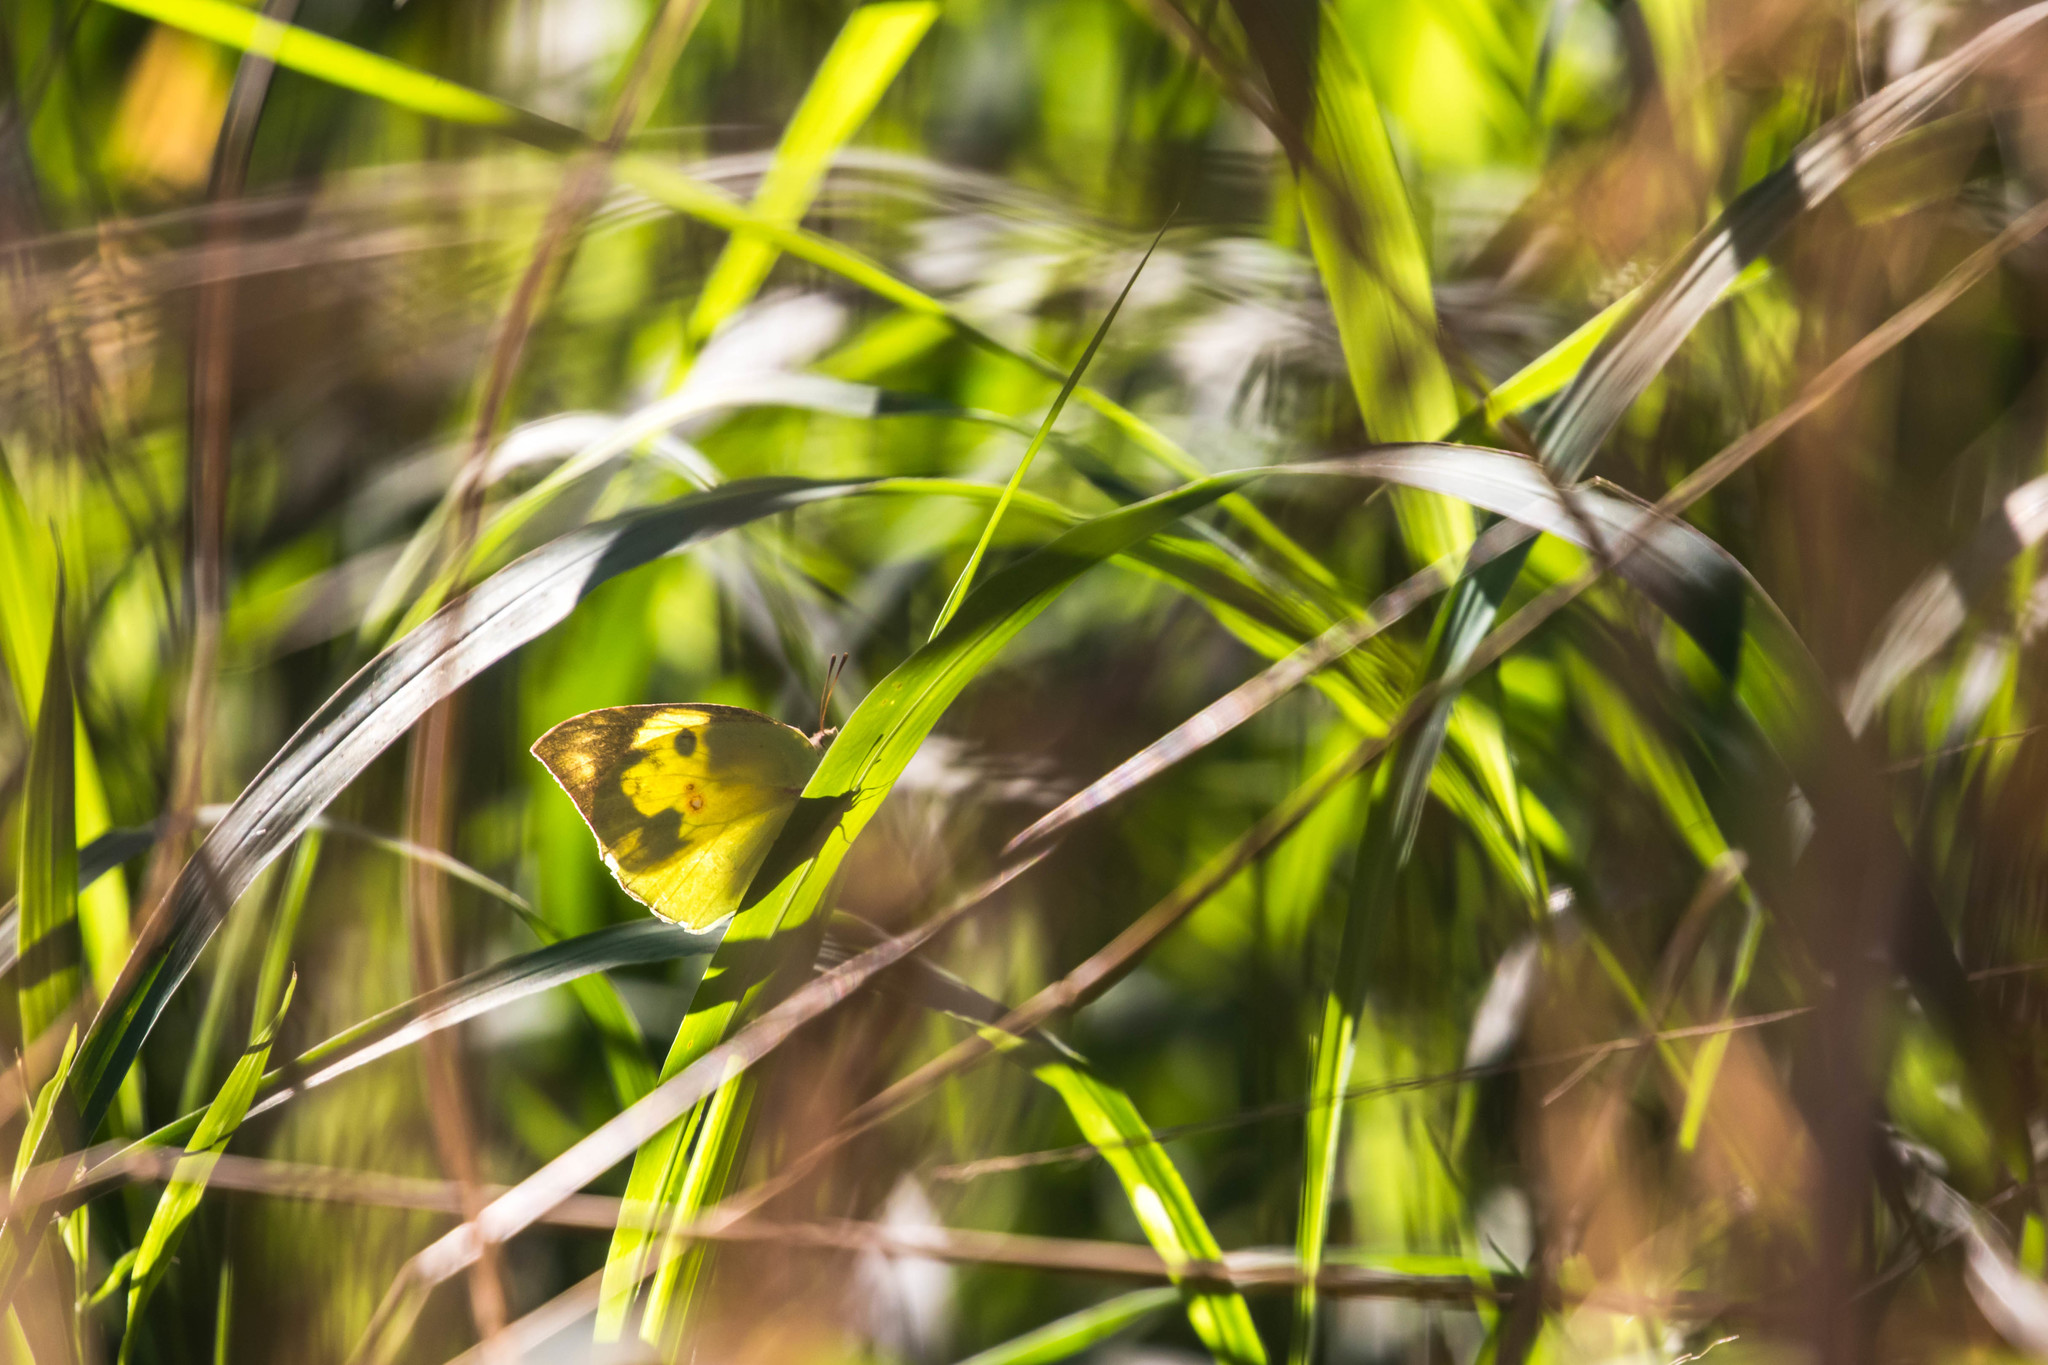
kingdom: Animalia
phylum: Arthropoda
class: Insecta
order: Lepidoptera
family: Pieridae
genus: Zerene
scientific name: Zerene cesonia
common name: Southern dogface
